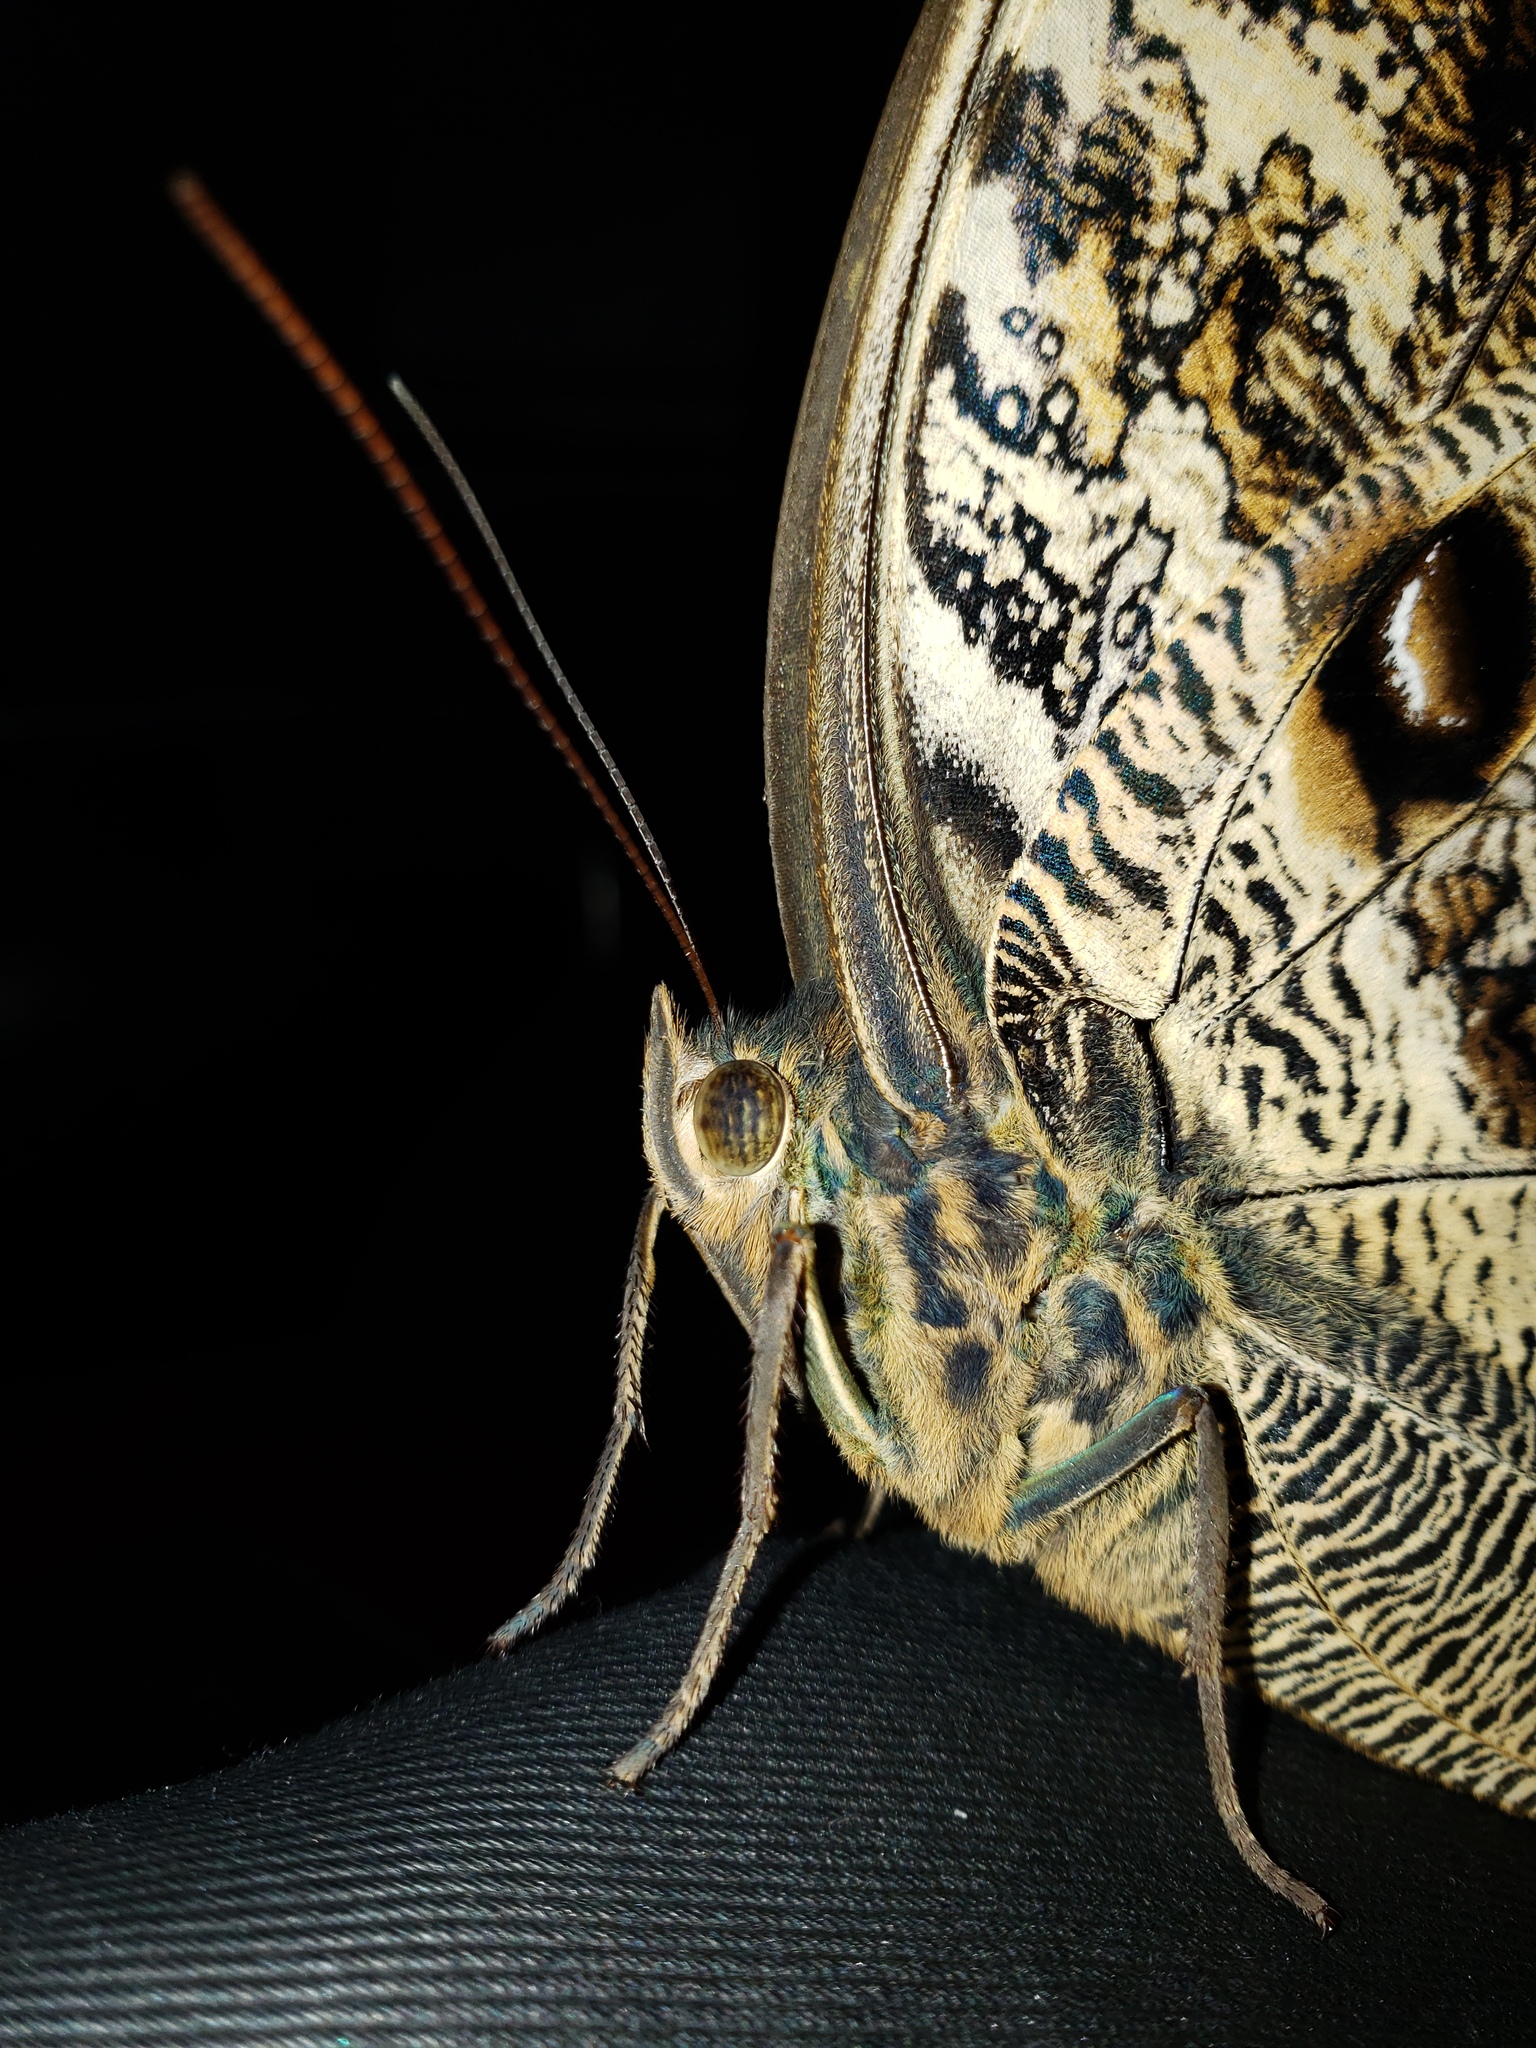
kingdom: Animalia
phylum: Arthropoda
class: Insecta
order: Lepidoptera
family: Nymphalidae
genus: Caligo
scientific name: Caligo brasiliensis
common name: Dark owl-butterfly
